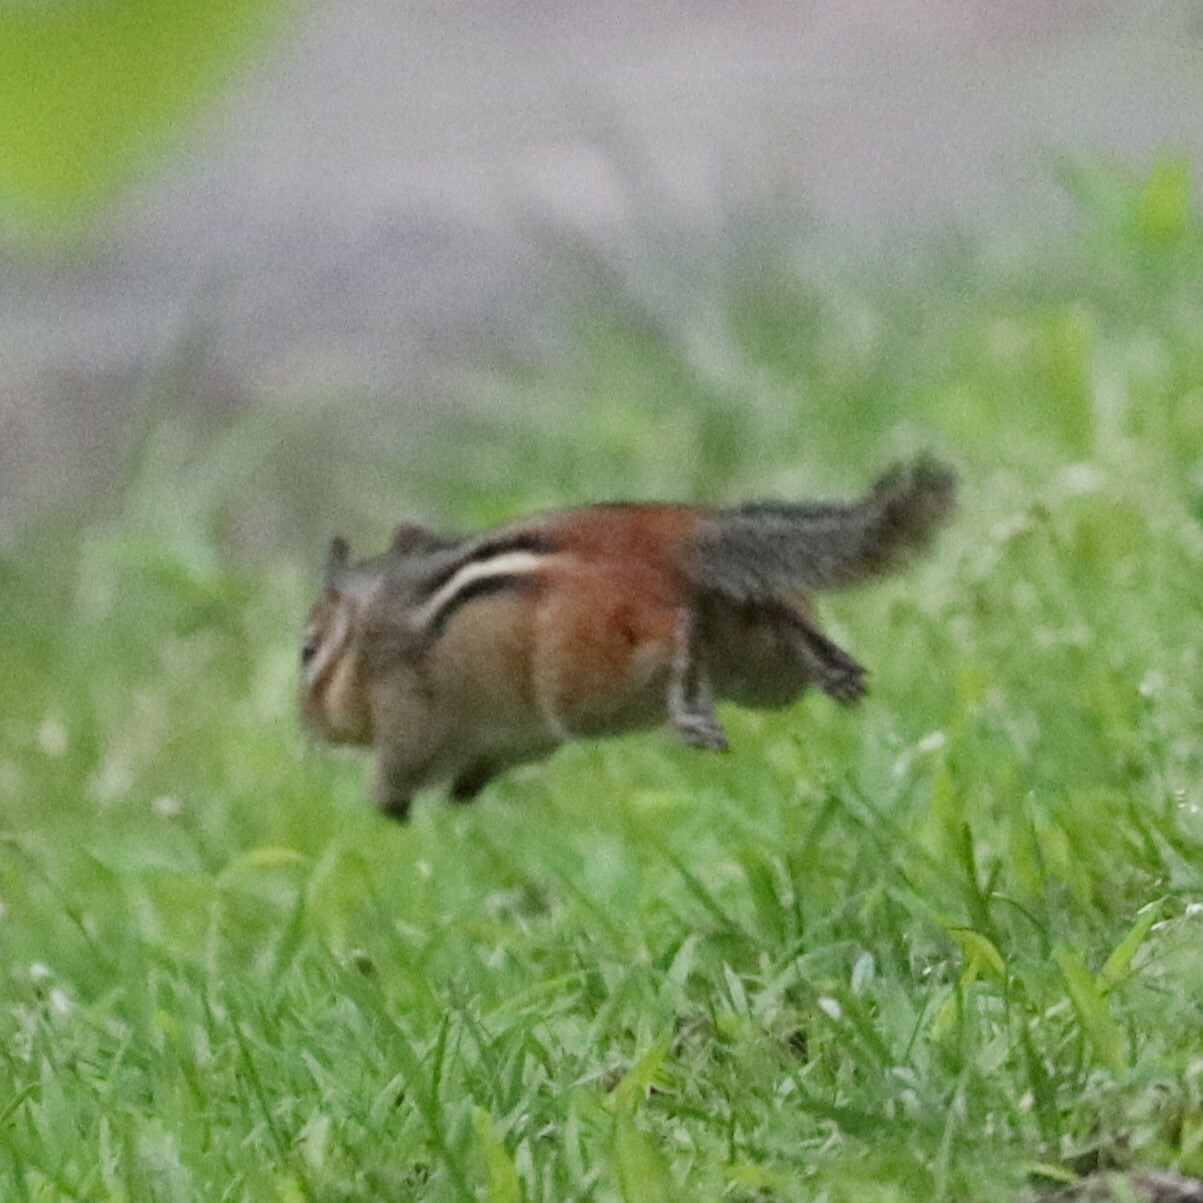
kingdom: Animalia
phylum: Chordata
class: Mammalia
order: Rodentia
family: Sciuridae
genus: Tamias
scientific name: Tamias striatus
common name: Eastern chipmunk
